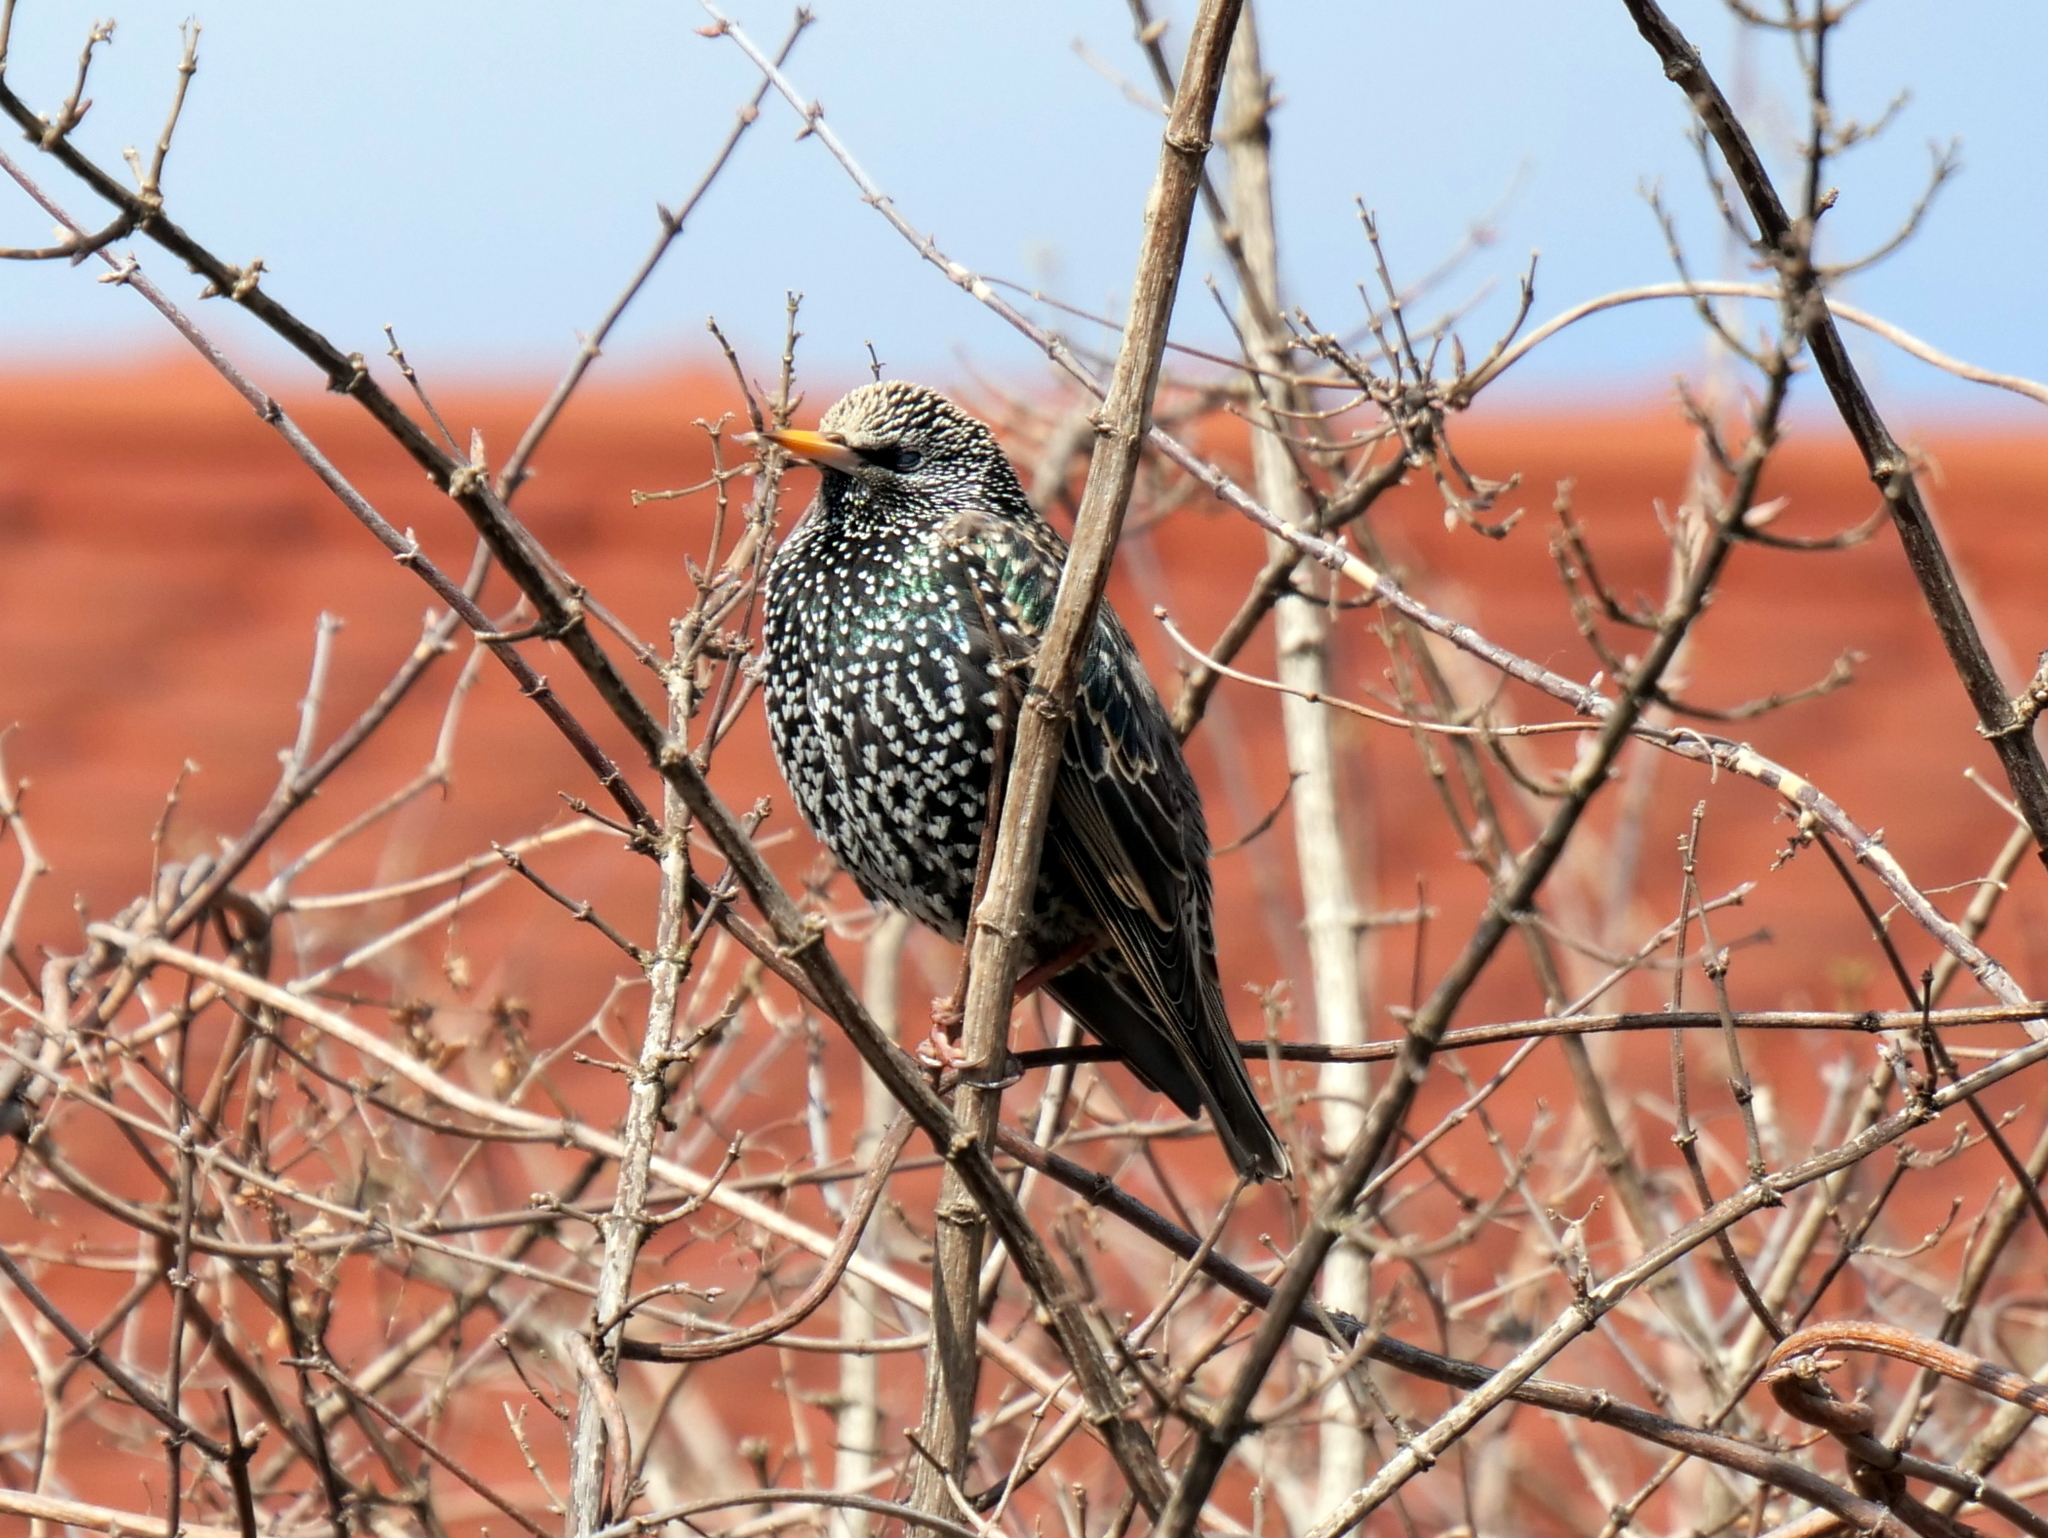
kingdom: Animalia
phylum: Chordata
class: Aves
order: Passeriformes
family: Sturnidae
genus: Sturnus
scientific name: Sturnus vulgaris
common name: Common starling
